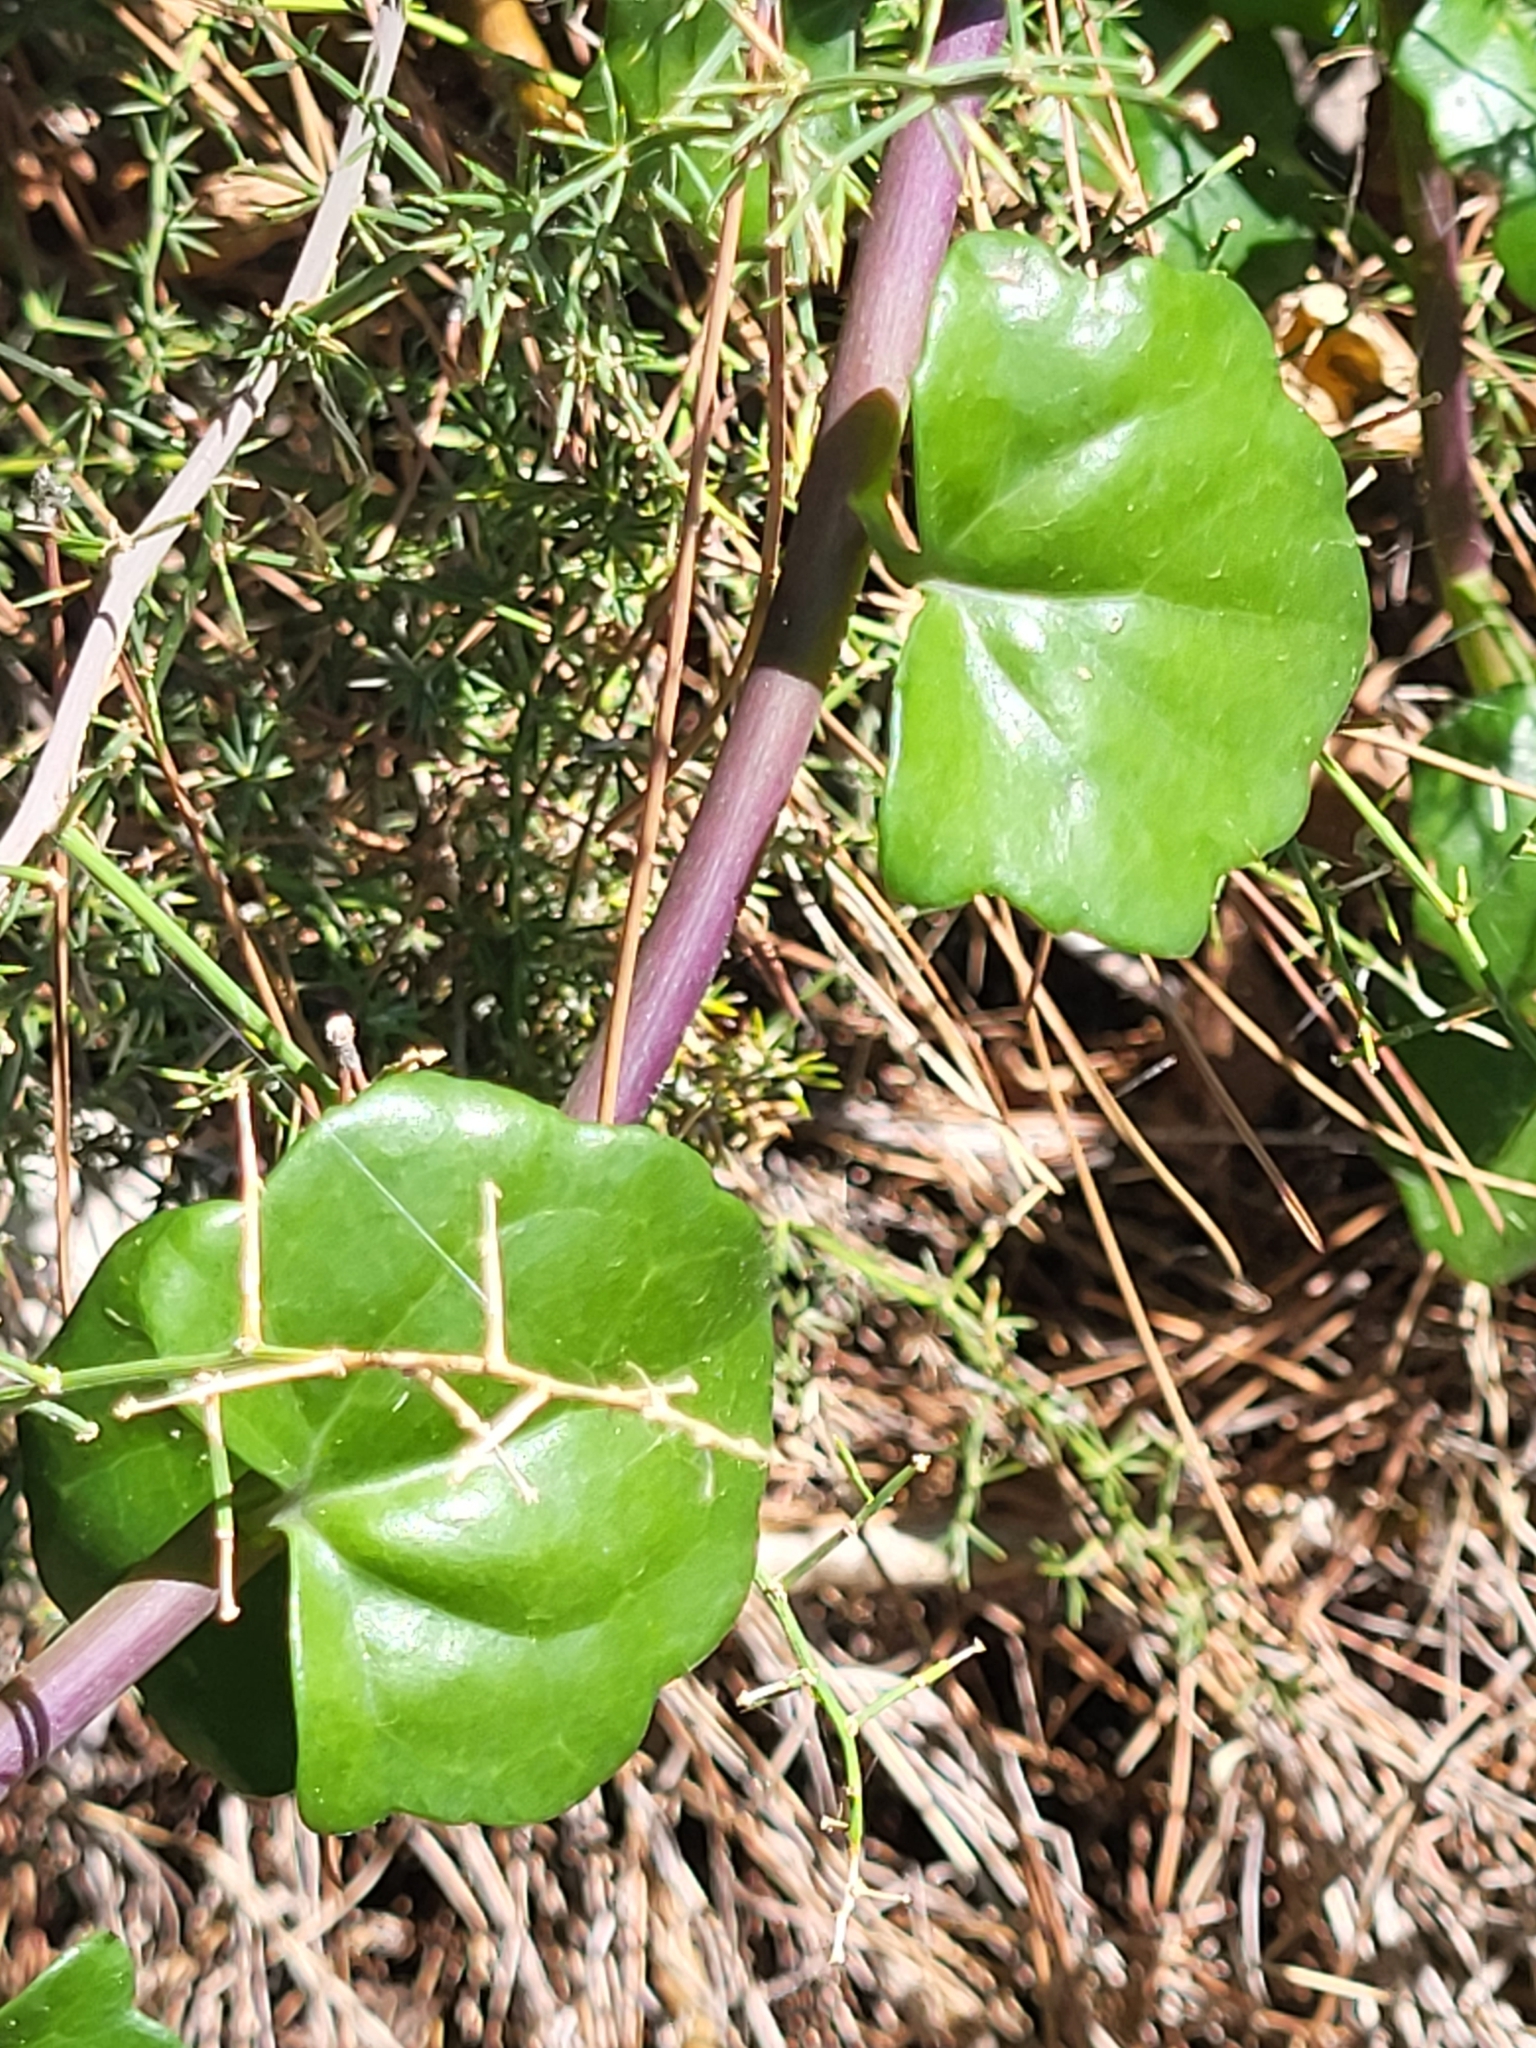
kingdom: Plantae
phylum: Tracheophyta
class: Magnoliopsida
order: Asterales
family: Asteraceae
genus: Senecio
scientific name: Senecio angulatus
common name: Climbing groundsel
